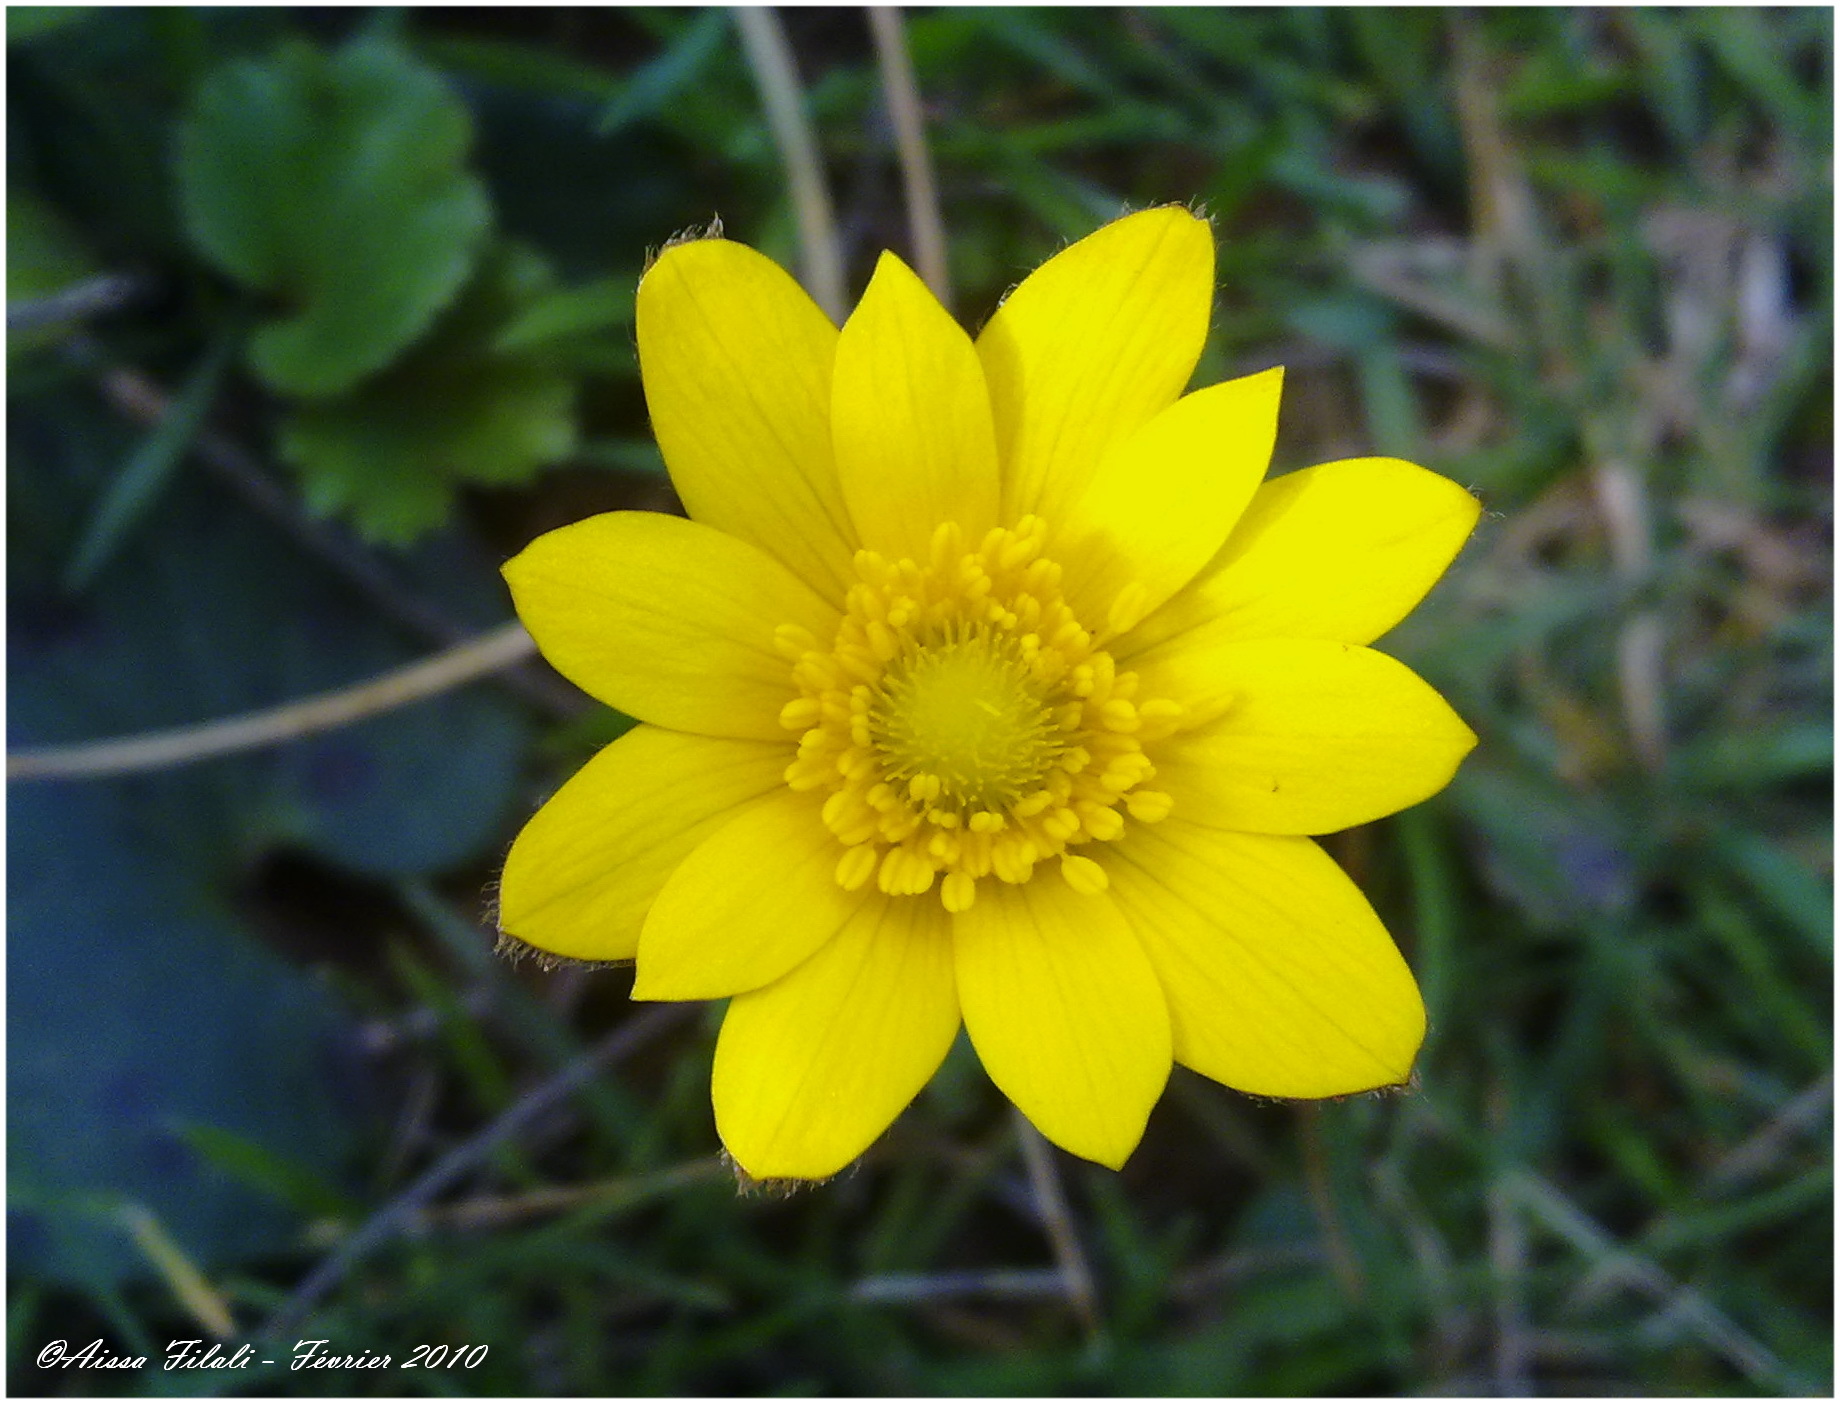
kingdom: Plantae
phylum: Tracheophyta
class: Magnoliopsida
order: Ranunculales
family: Ranunculaceae
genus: Anemone
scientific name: Anemone palmata
